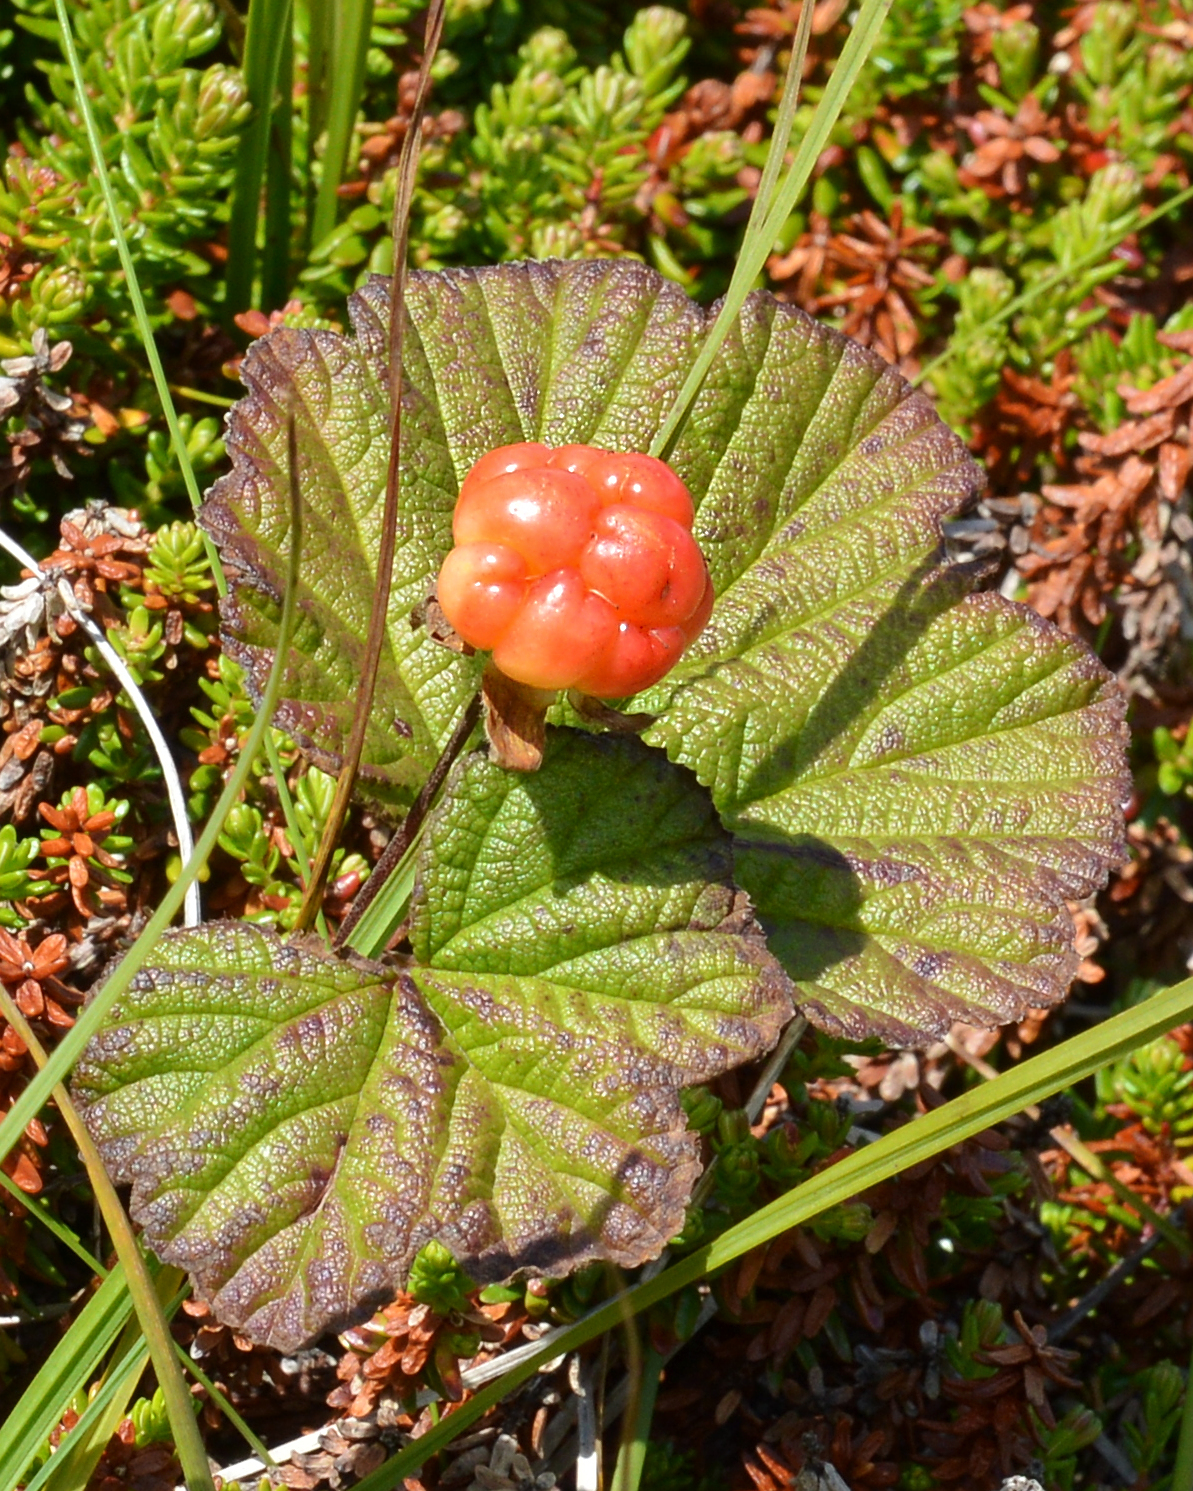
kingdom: Plantae
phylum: Tracheophyta
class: Magnoliopsida
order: Rosales
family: Rosaceae
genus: Rubus
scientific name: Rubus chamaemorus
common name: Cloudberry
